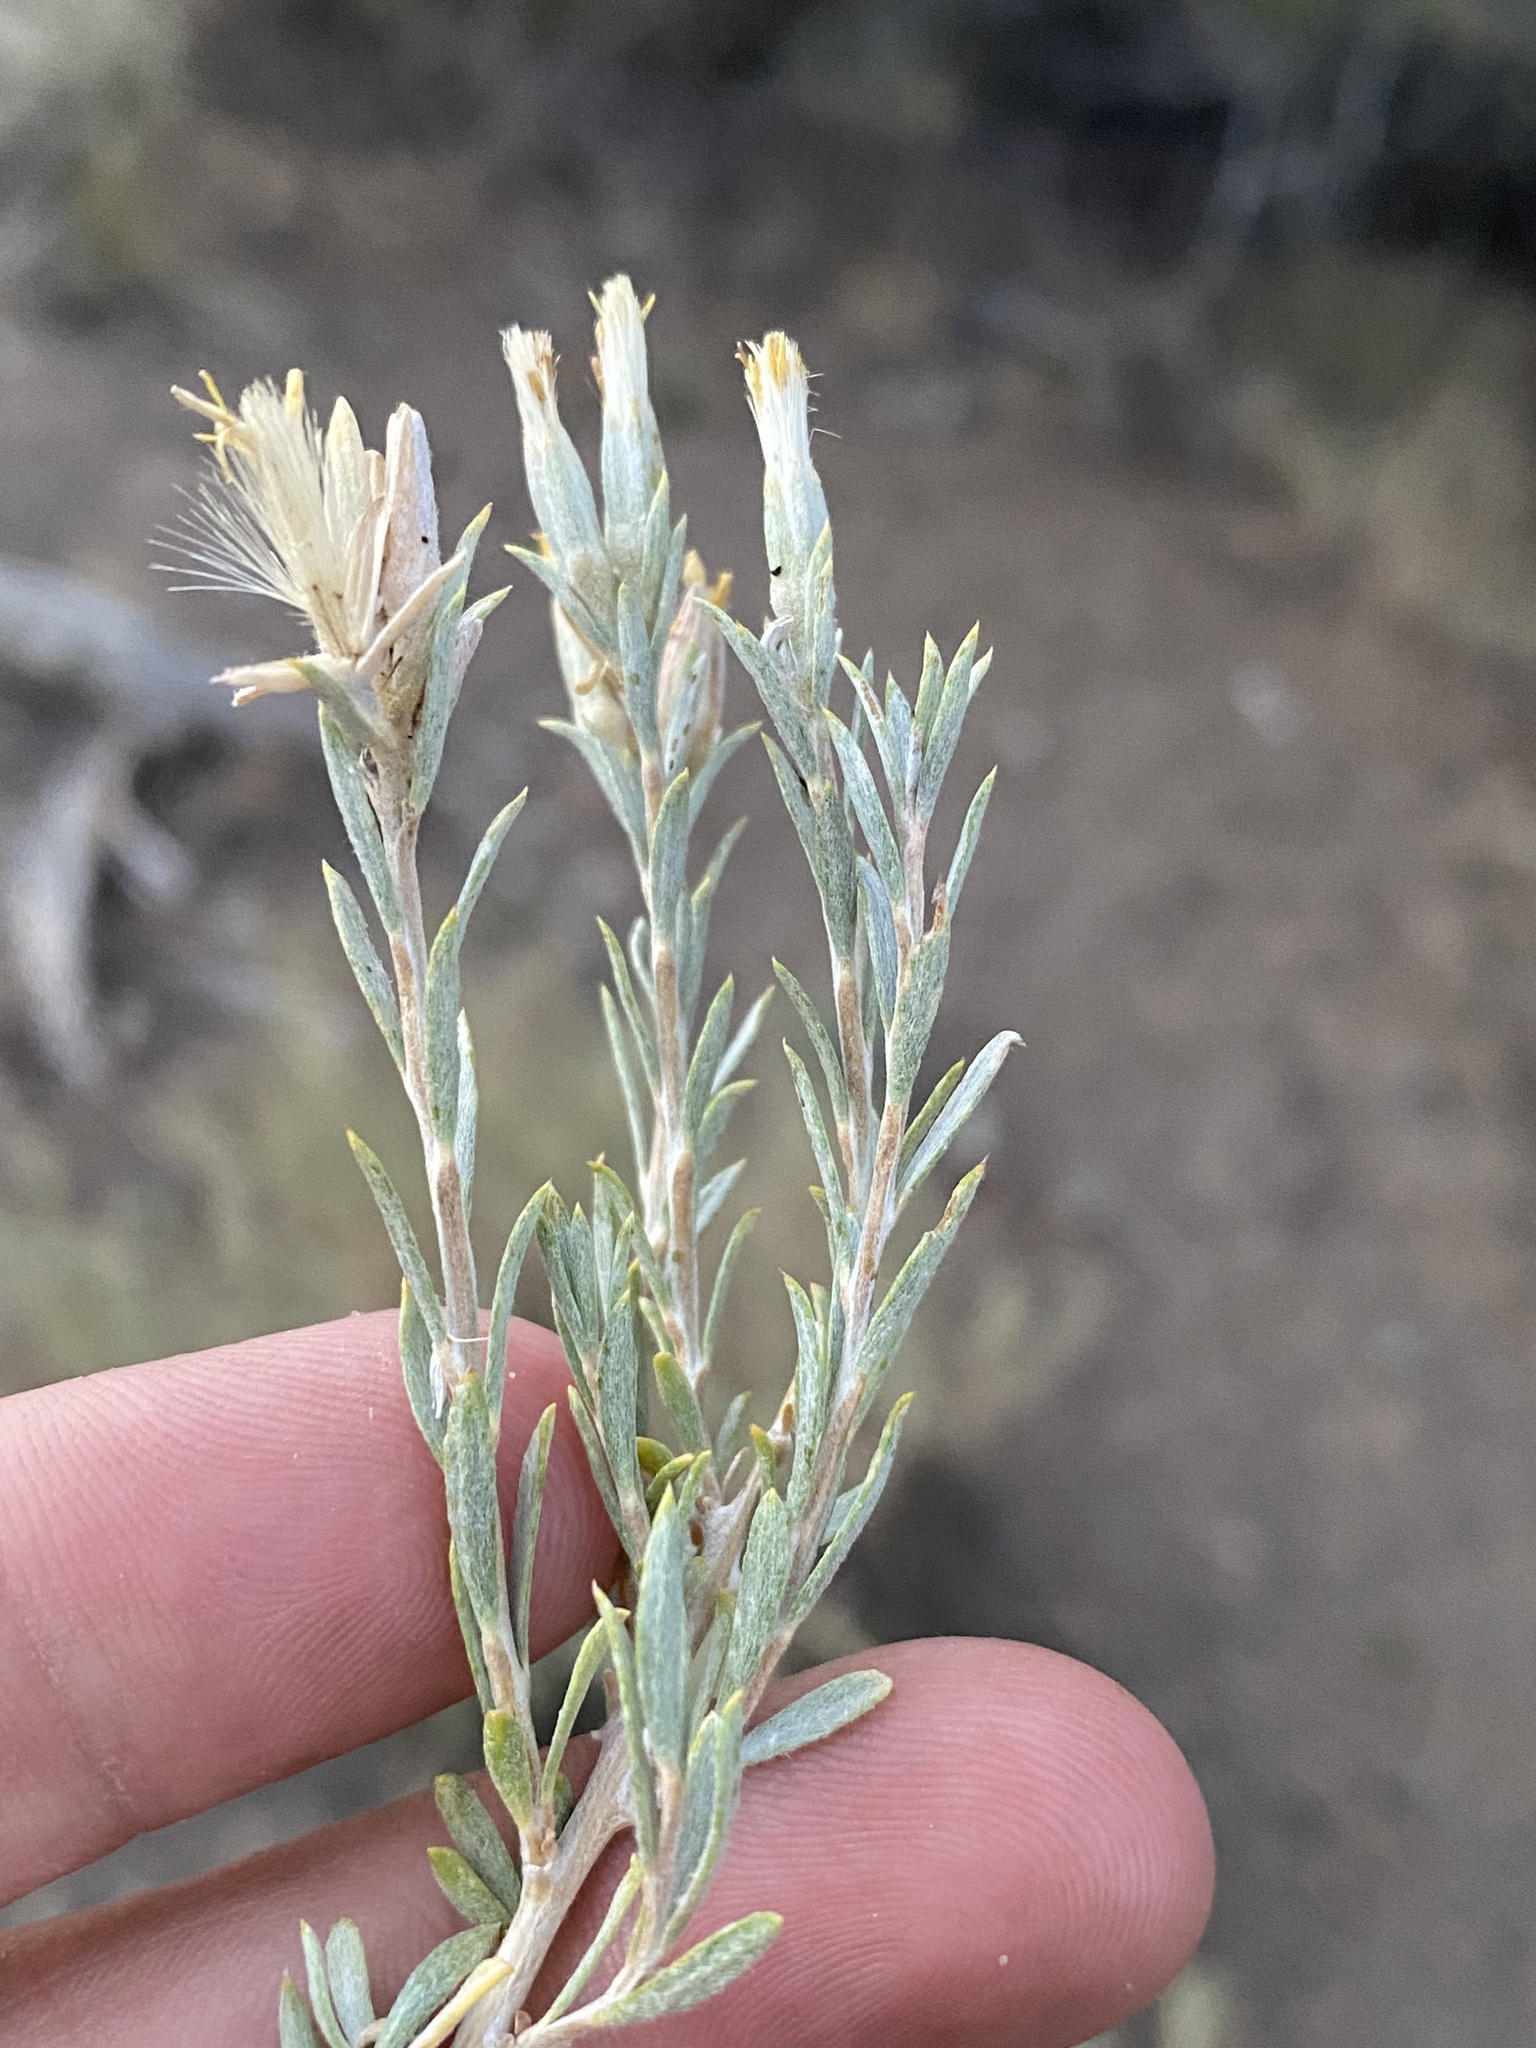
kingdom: Plantae
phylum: Tracheophyta
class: Magnoliopsida
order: Asterales
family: Asteraceae
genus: Tetradymia
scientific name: Tetradymia canescens
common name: Spineless horsebrush
